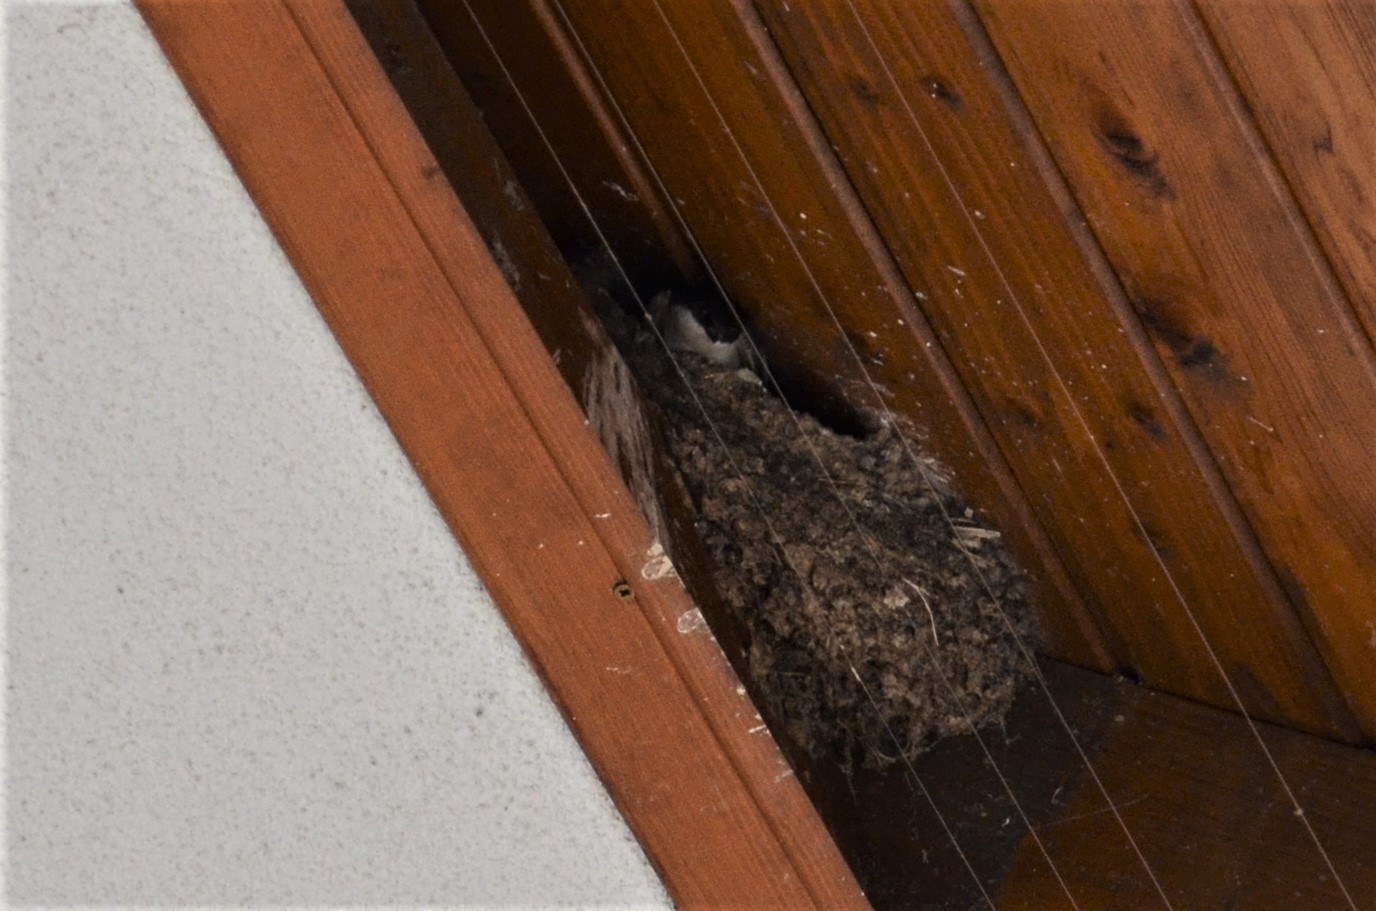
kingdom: Animalia
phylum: Chordata
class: Aves
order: Passeriformes
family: Hirundinidae
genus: Delichon
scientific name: Delichon urbicum
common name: Common house martin
